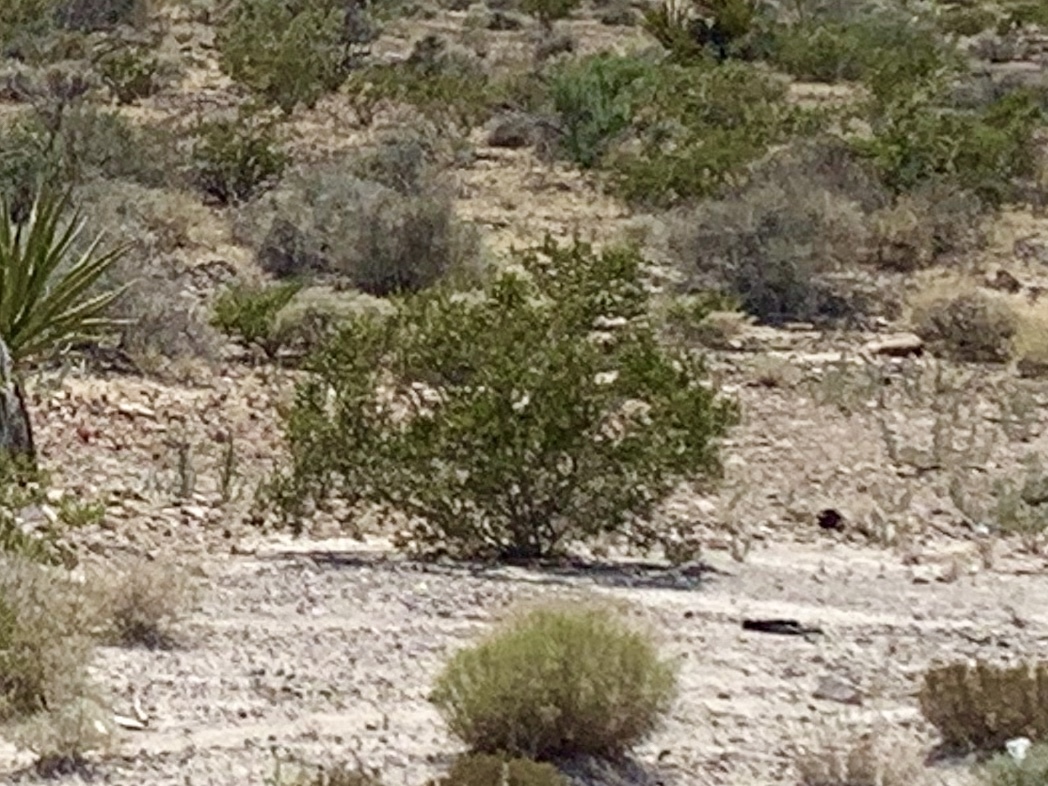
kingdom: Plantae
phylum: Tracheophyta
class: Magnoliopsida
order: Zygophyllales
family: Zygophyllaceae
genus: Larrea
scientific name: Larrea tridentata
